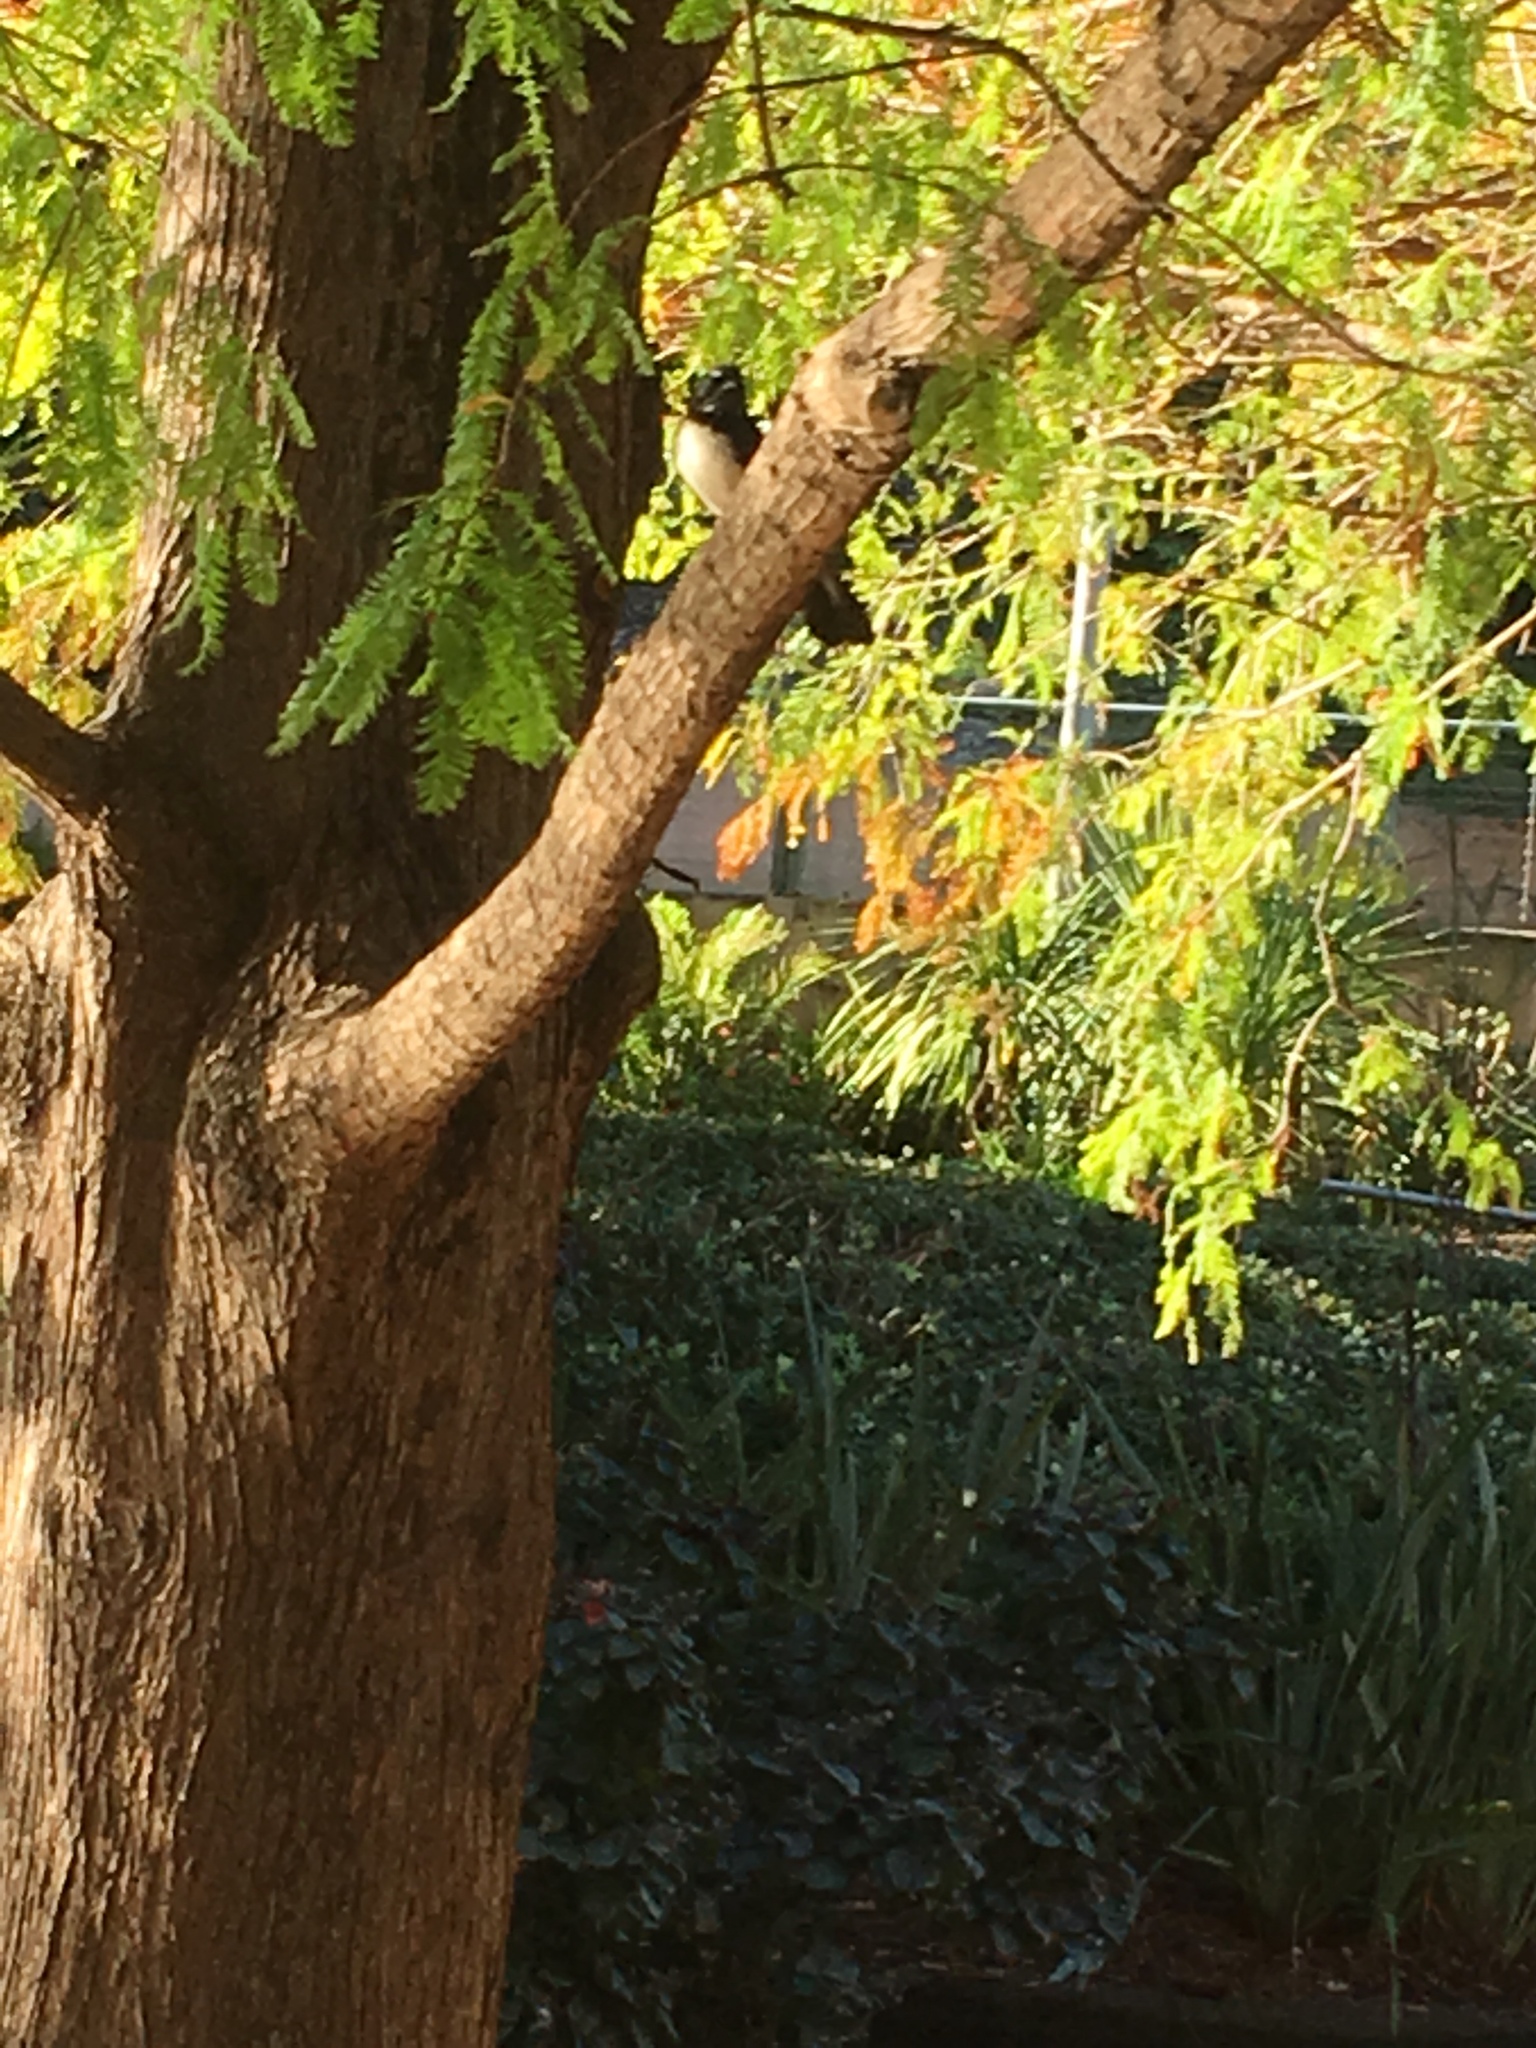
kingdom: Animalia
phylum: Chordata
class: Aves
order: Passeriformes
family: Rhipiduridae
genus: Rhipidura
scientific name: Rhipidura leucophrys
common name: Willie wagtail
